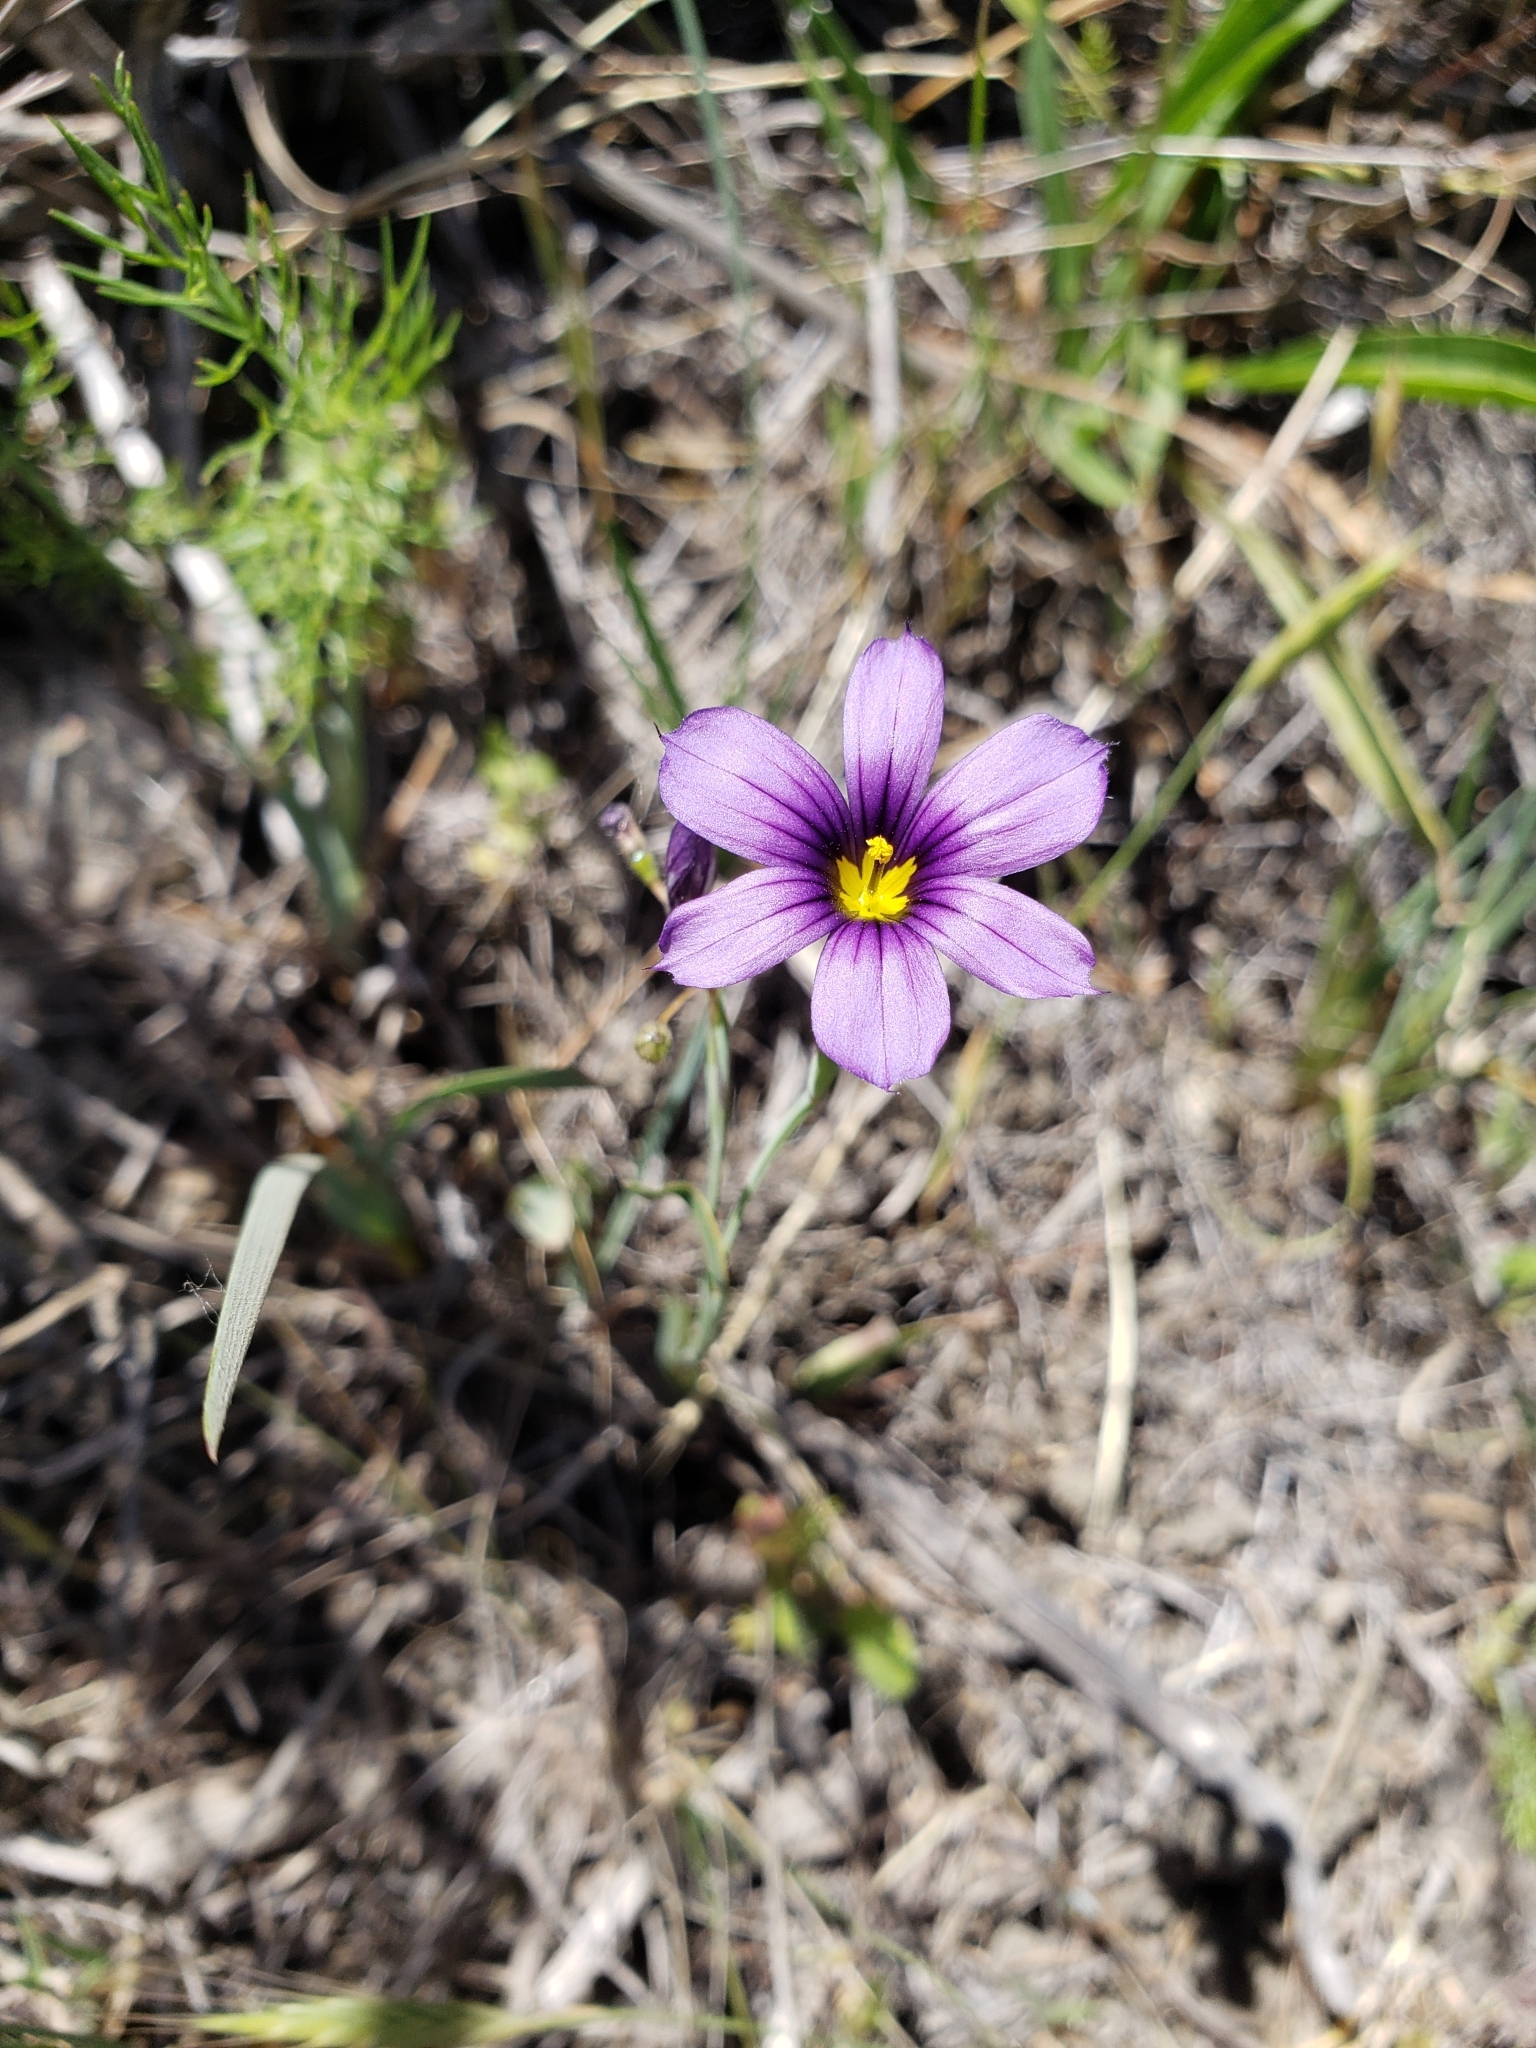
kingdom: Plantae
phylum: Tracheophyta
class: Liliopsida
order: Asparagales
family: Iridaceae
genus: Sisyrinchium
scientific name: Sisyrinchium bellum
